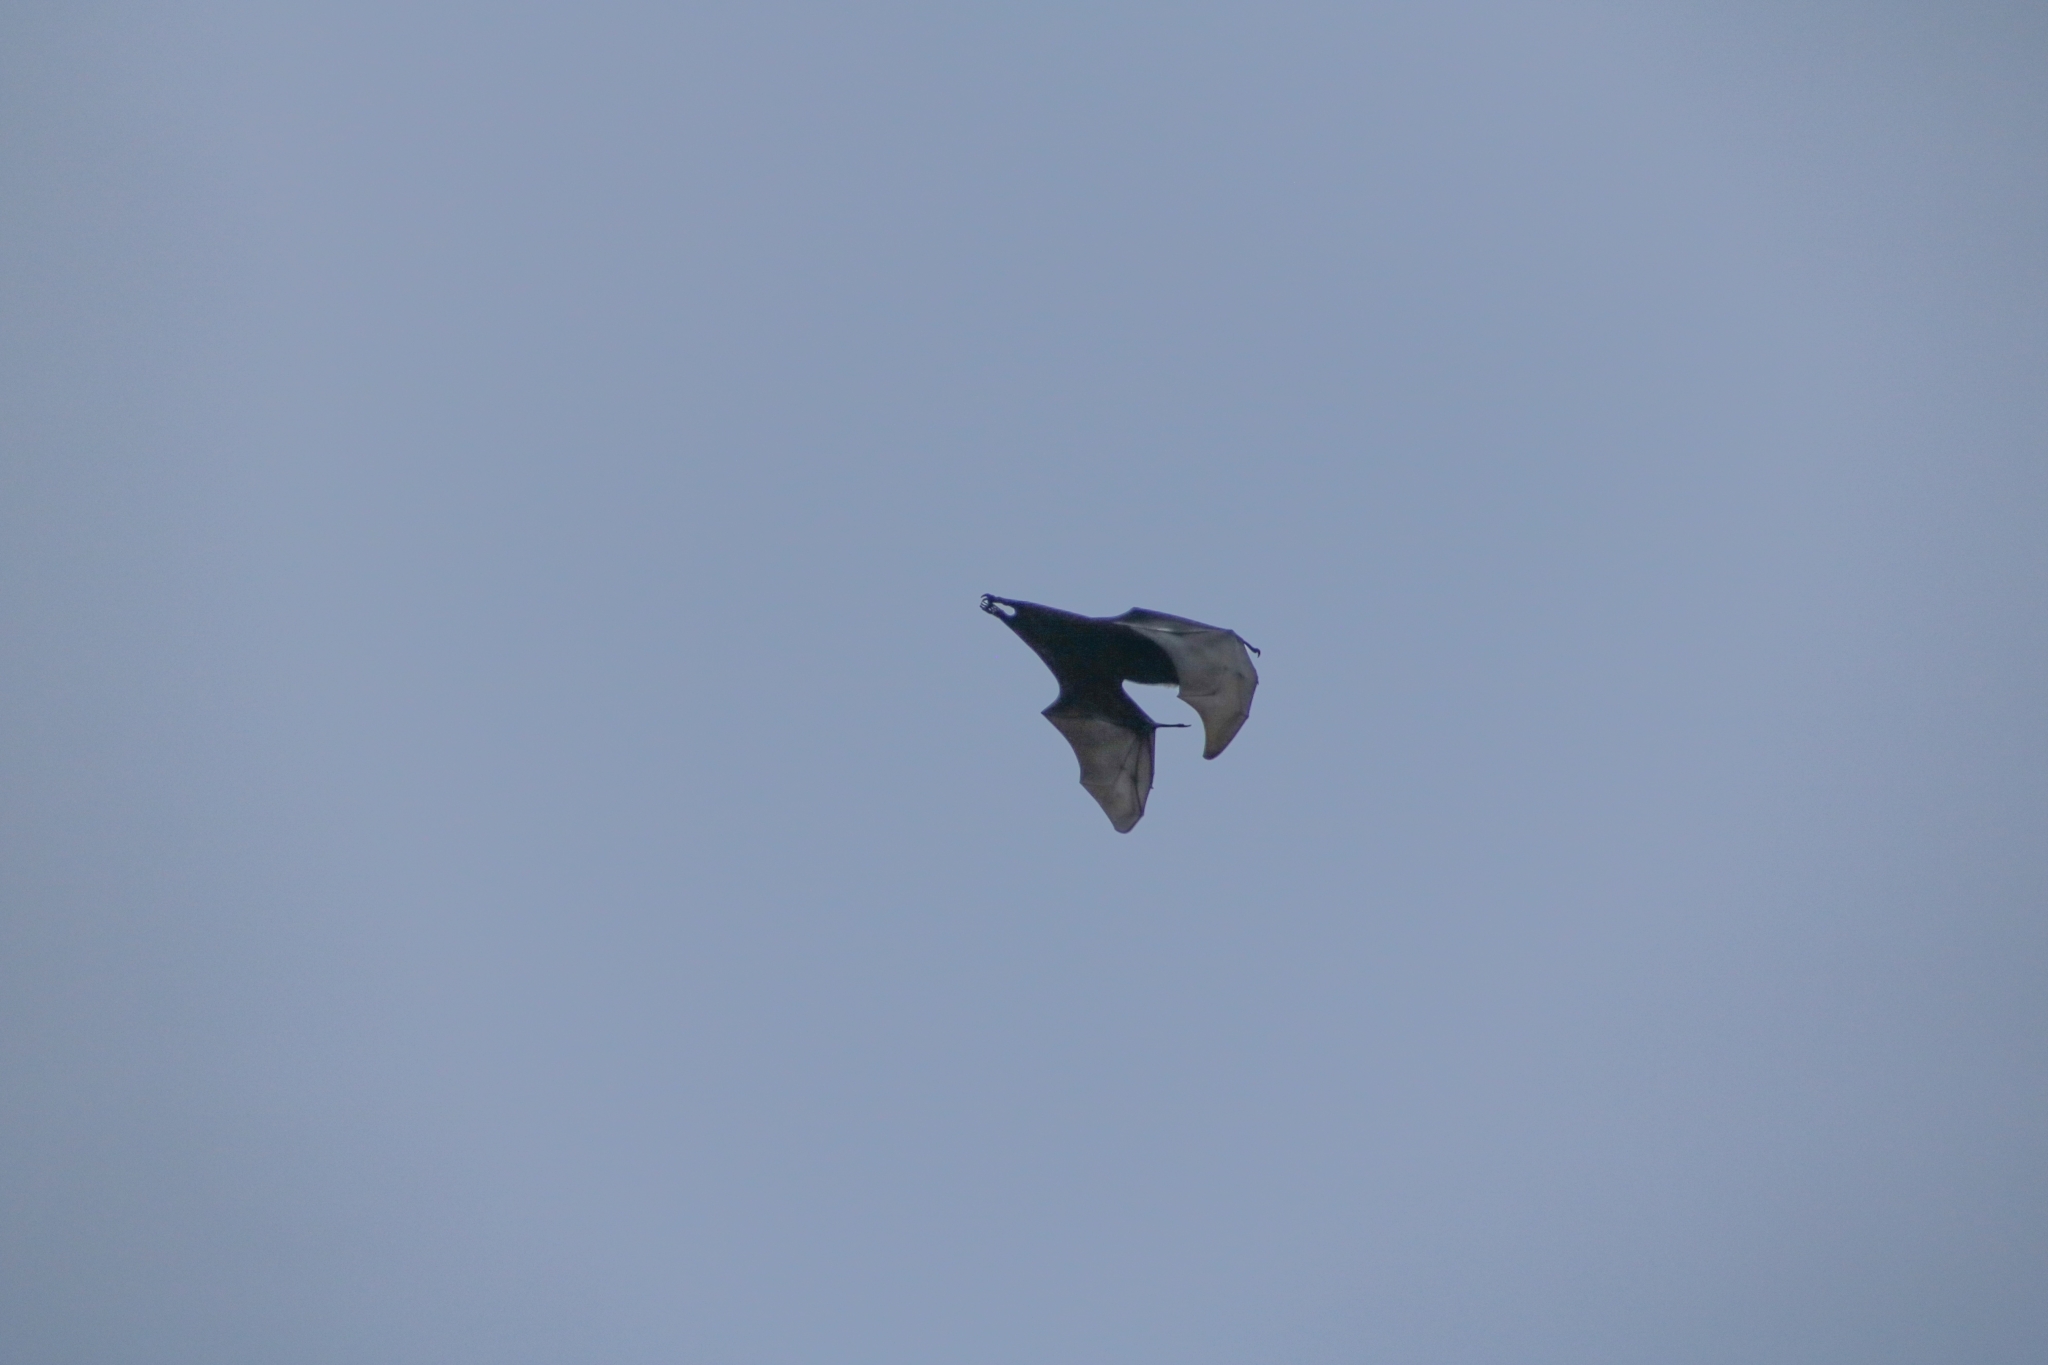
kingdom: Animalia
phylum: Chordata
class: Mammalia
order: Chiroptera
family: Pteropodidae
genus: Pteropus
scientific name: Pteropus conspicillatus
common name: Spectacled flying fox
